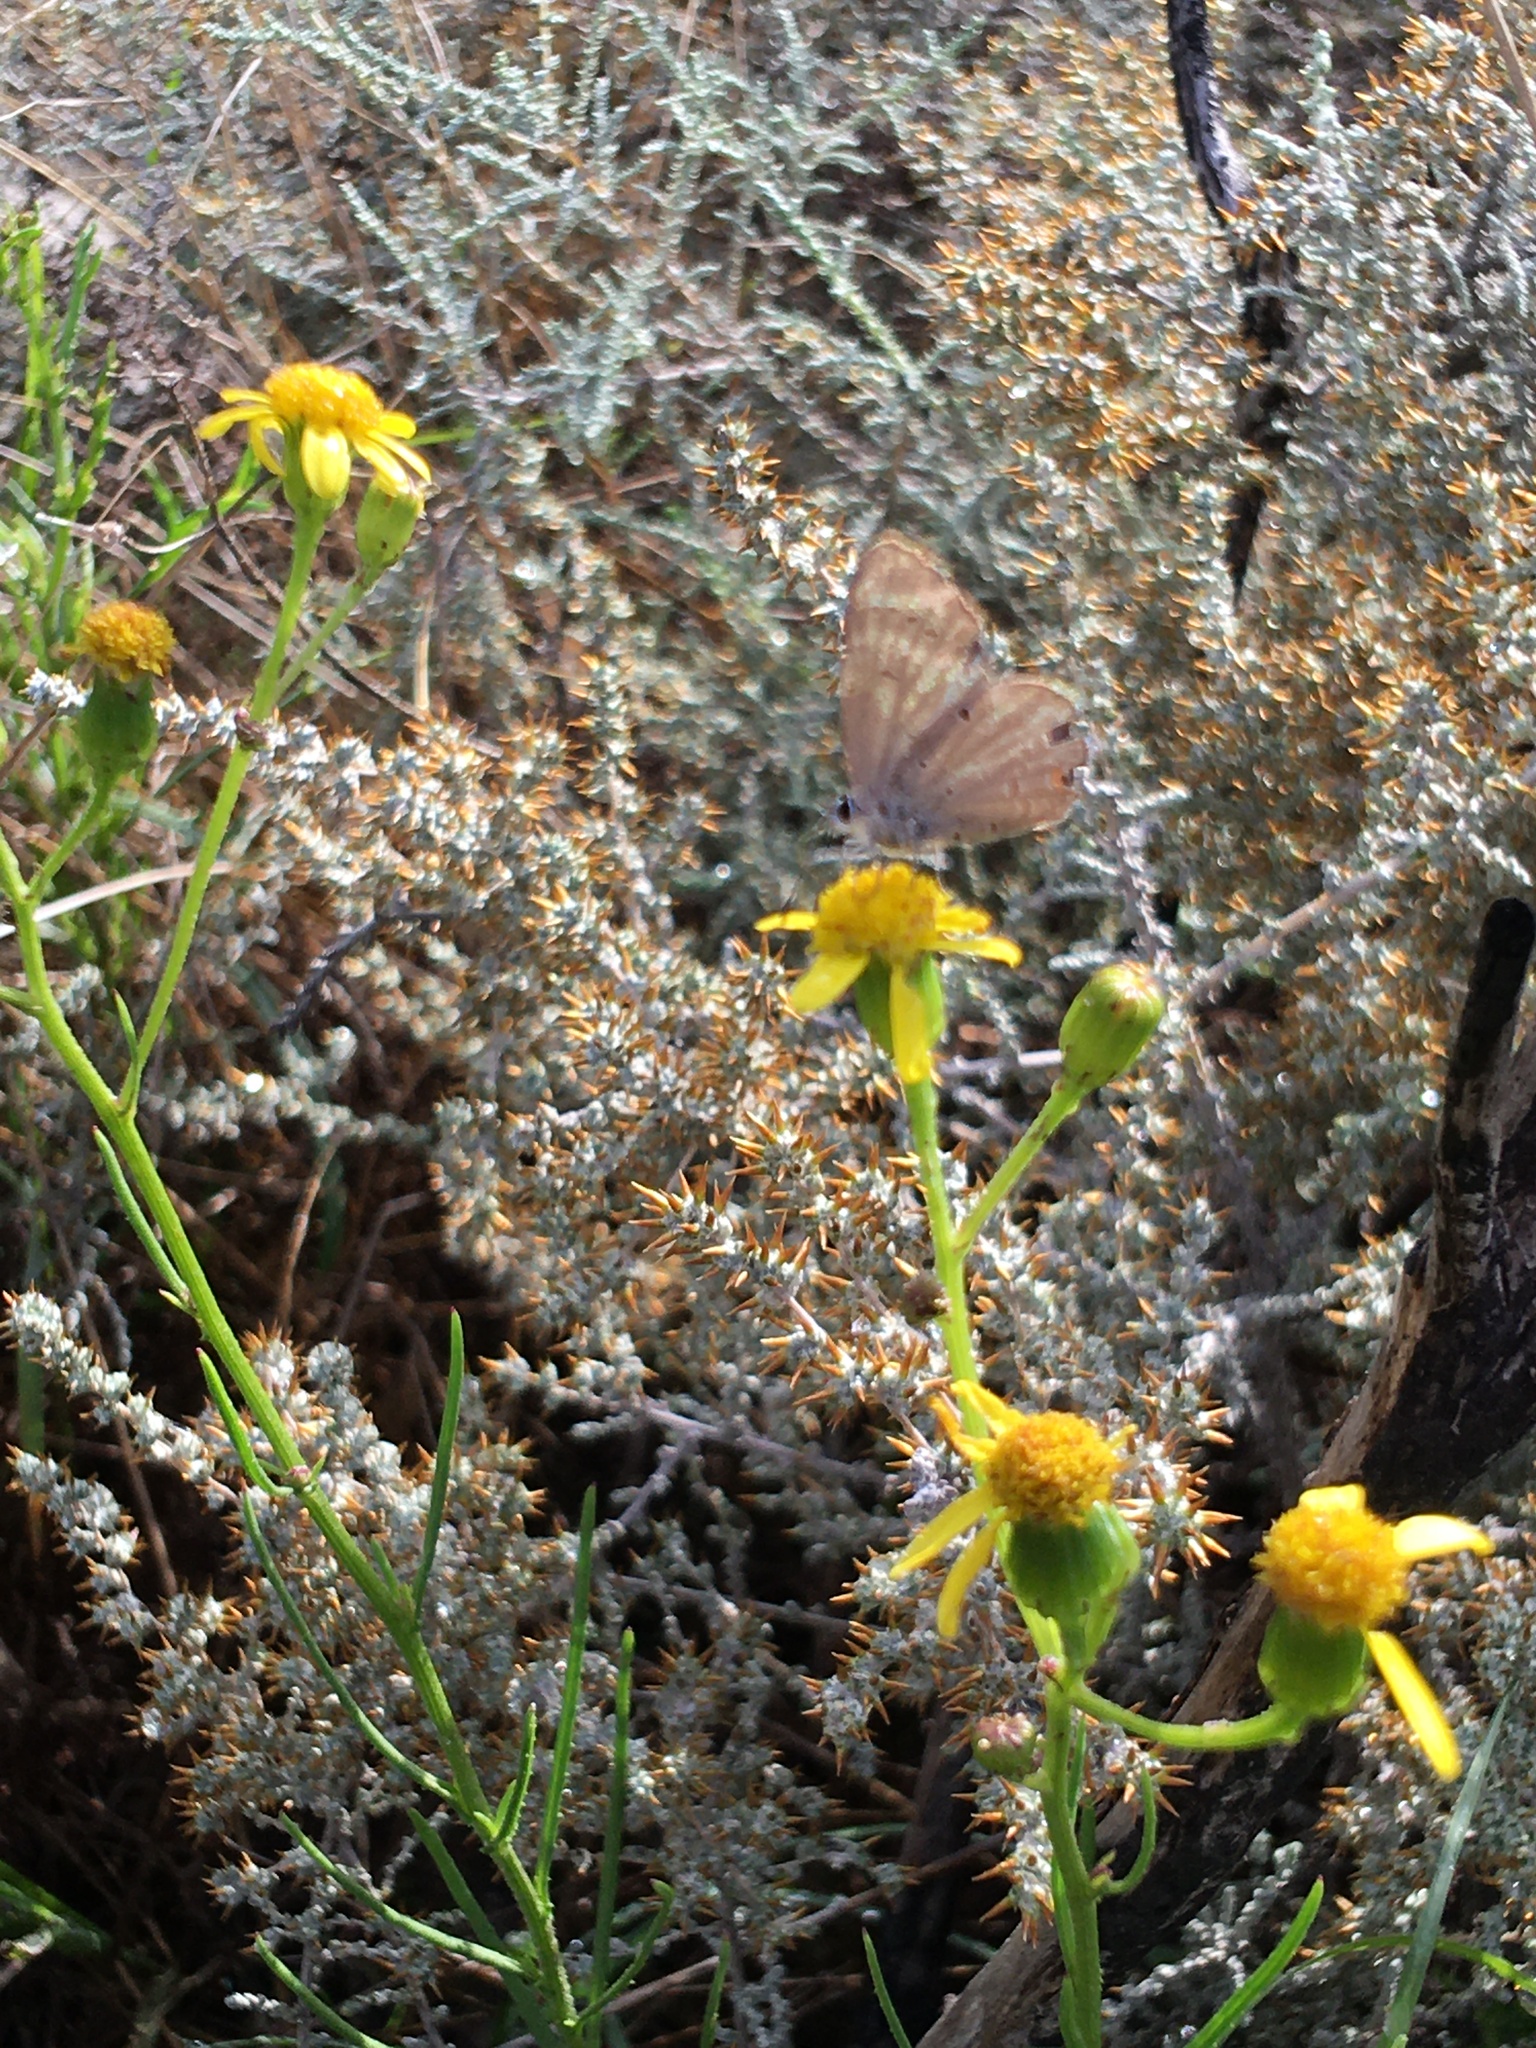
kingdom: Animalia
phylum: Arthropoda
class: Insecta
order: Lepidoptera
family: Lycaenidae
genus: Eicochrysops
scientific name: Eicochrysops messapus
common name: Cupreous blue
